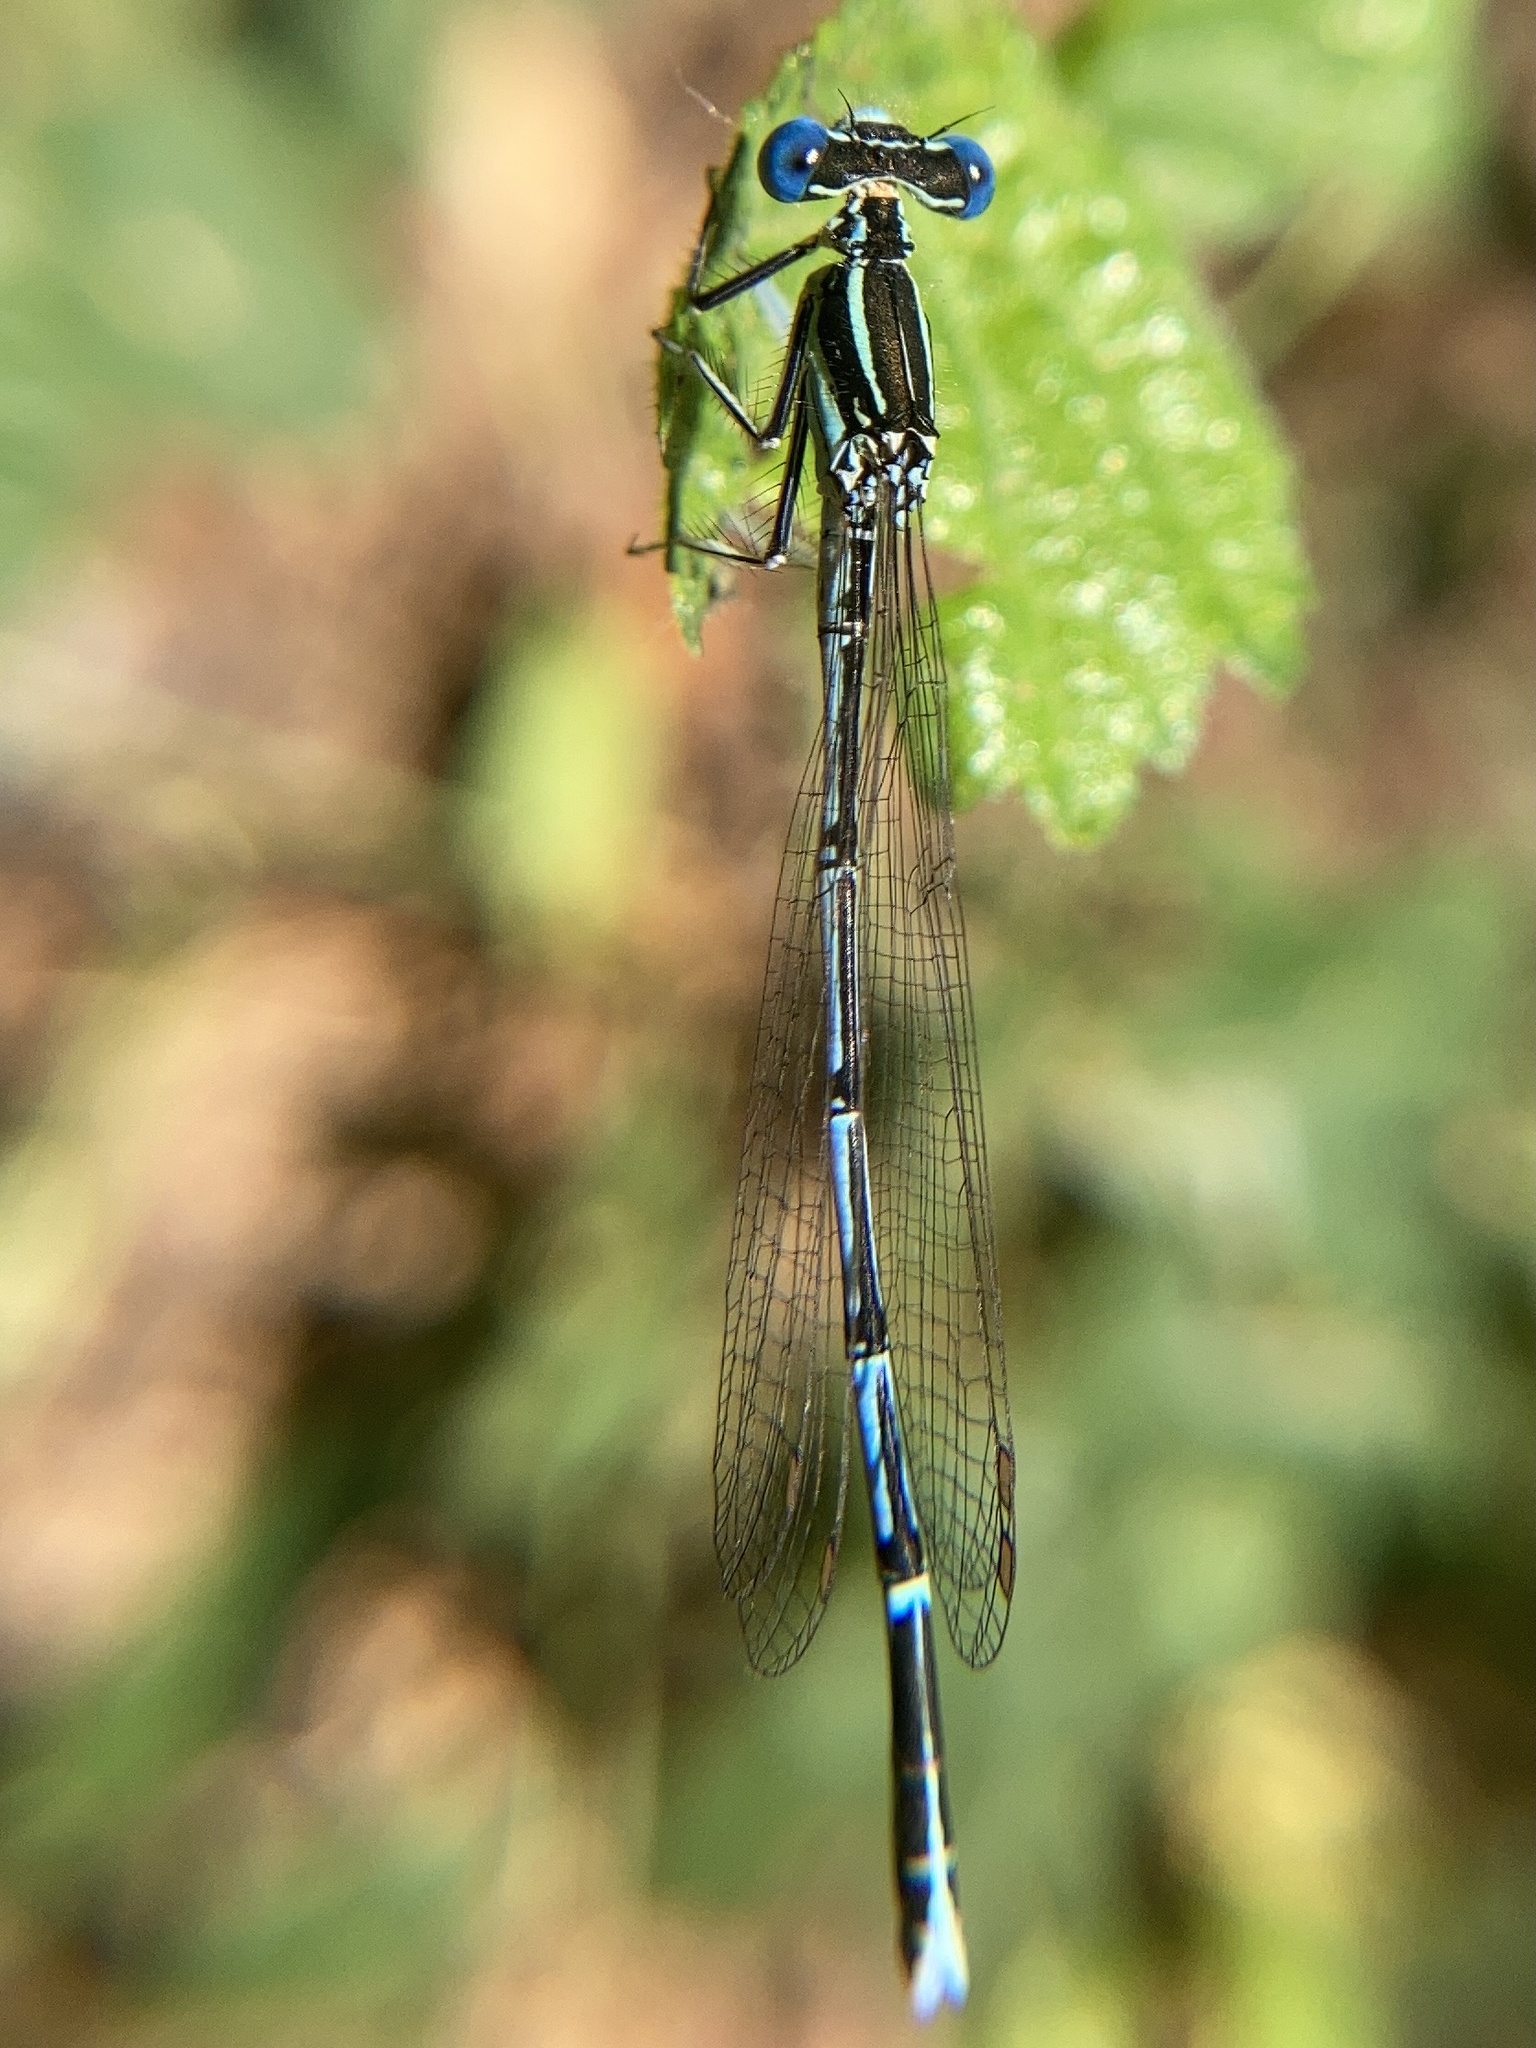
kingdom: Animalia
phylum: Arthropoda
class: Insecta
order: Odonata
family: Platycnemididae
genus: Platycnemis
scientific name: Platycnemis pennipes
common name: White-legged damselfly
